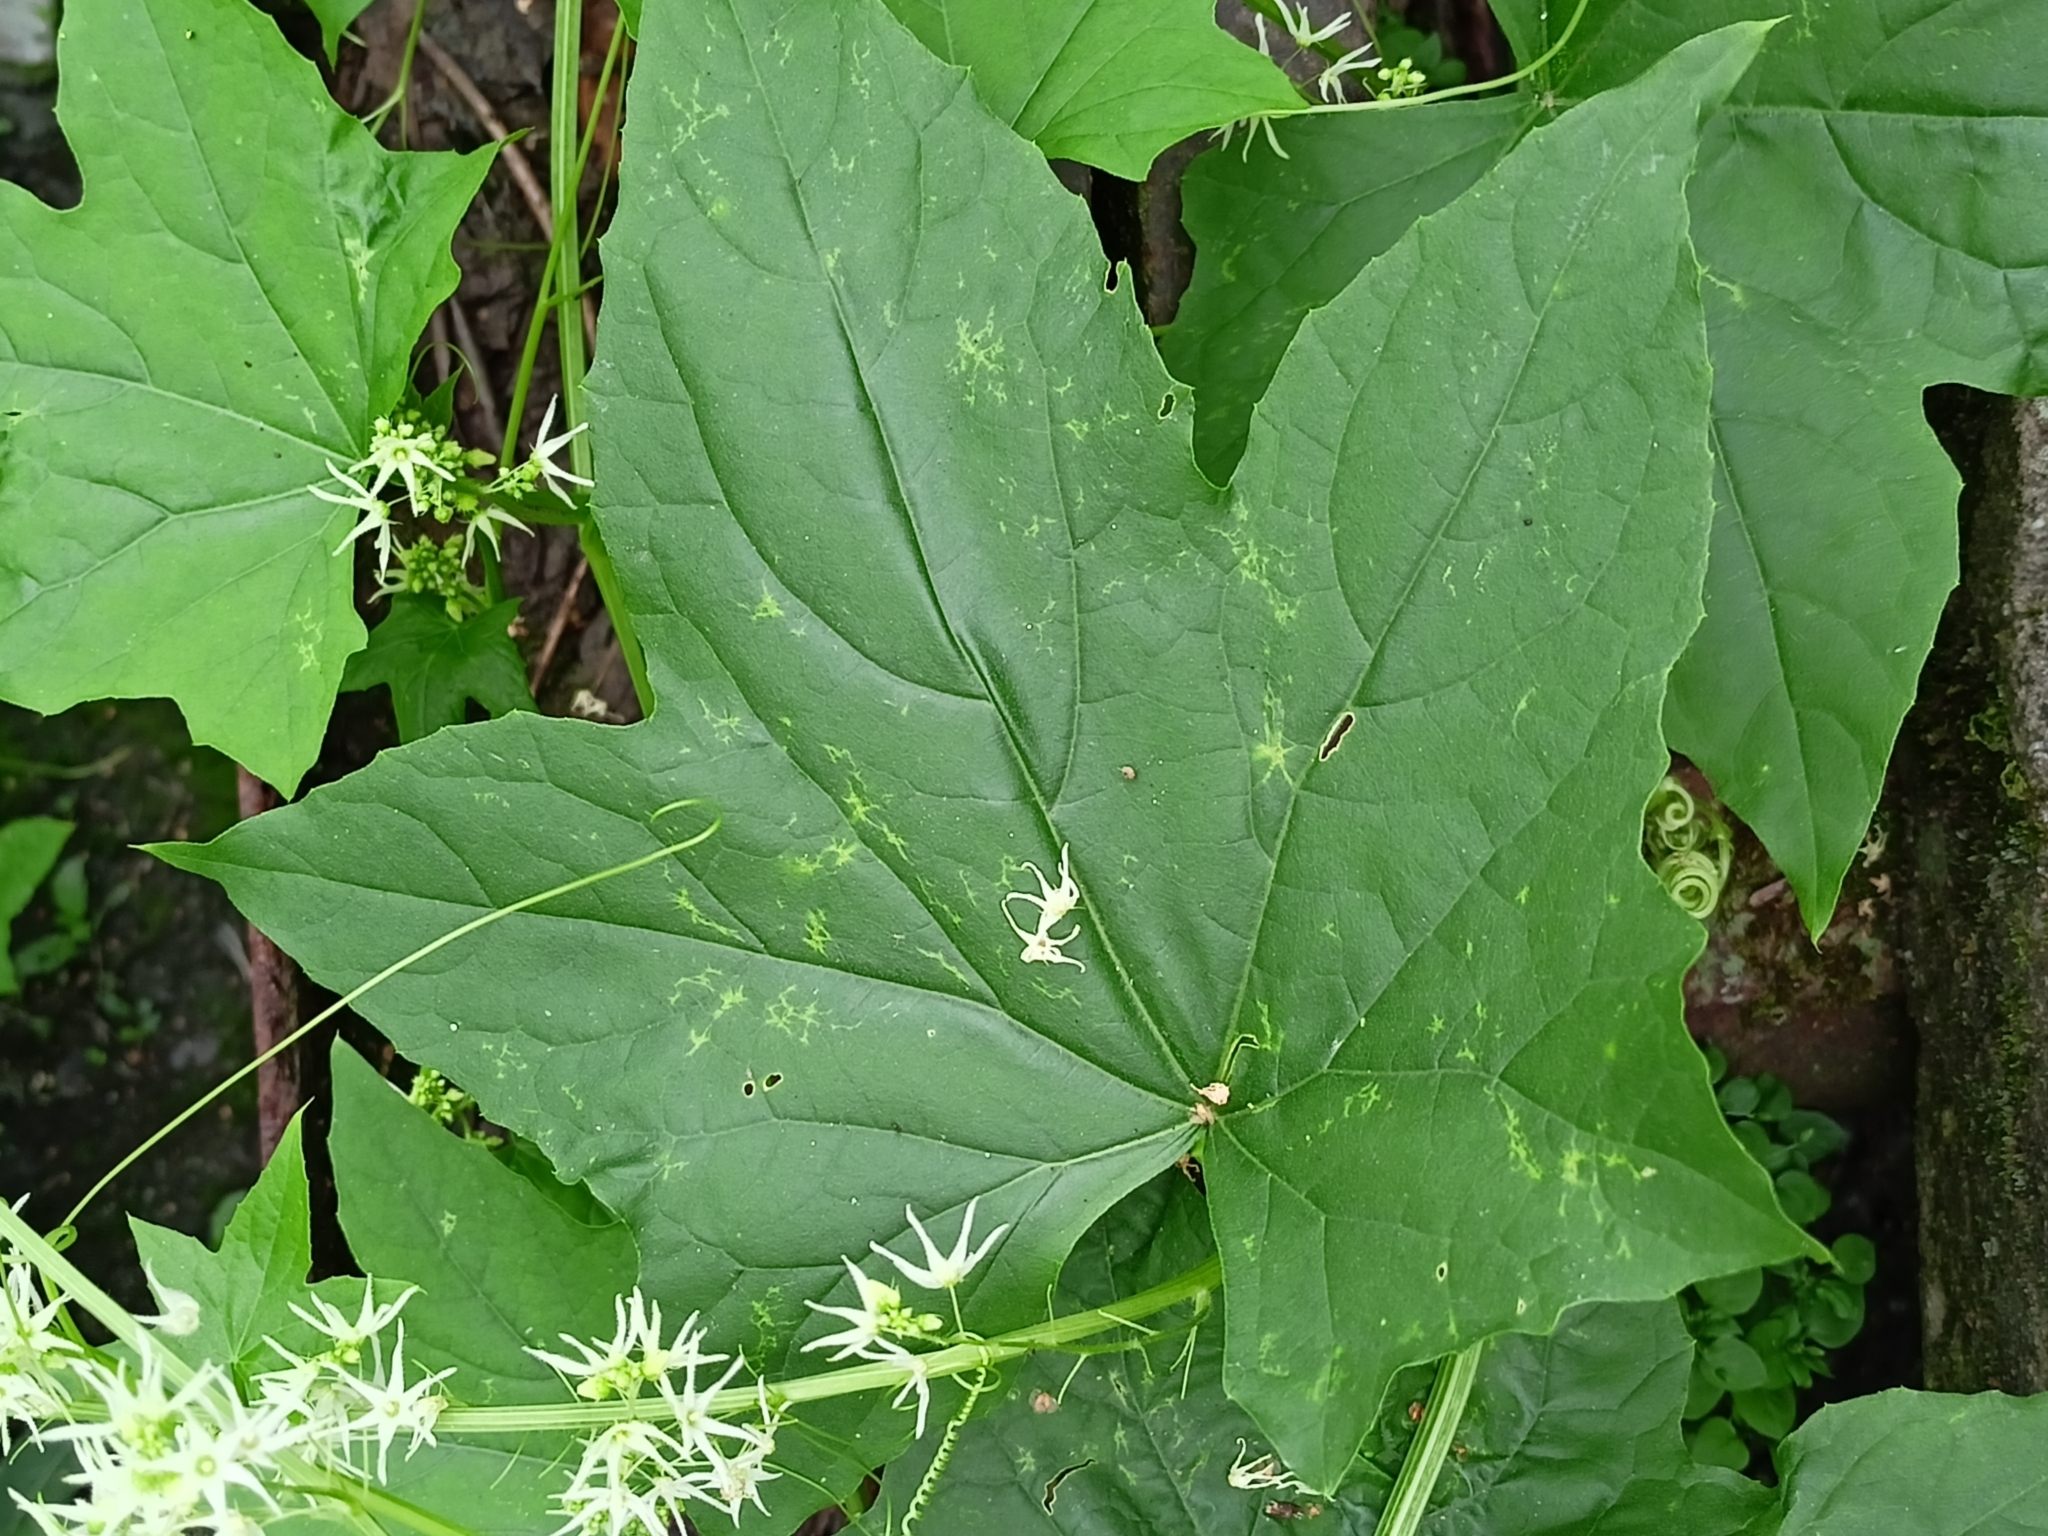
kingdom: Plantae
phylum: Tracheophyta
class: Magnoliopsida
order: Cucurbitales
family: Cucurbitaceae
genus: Echinocystis
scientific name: Echinocystis lobata
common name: Wild cucumber
